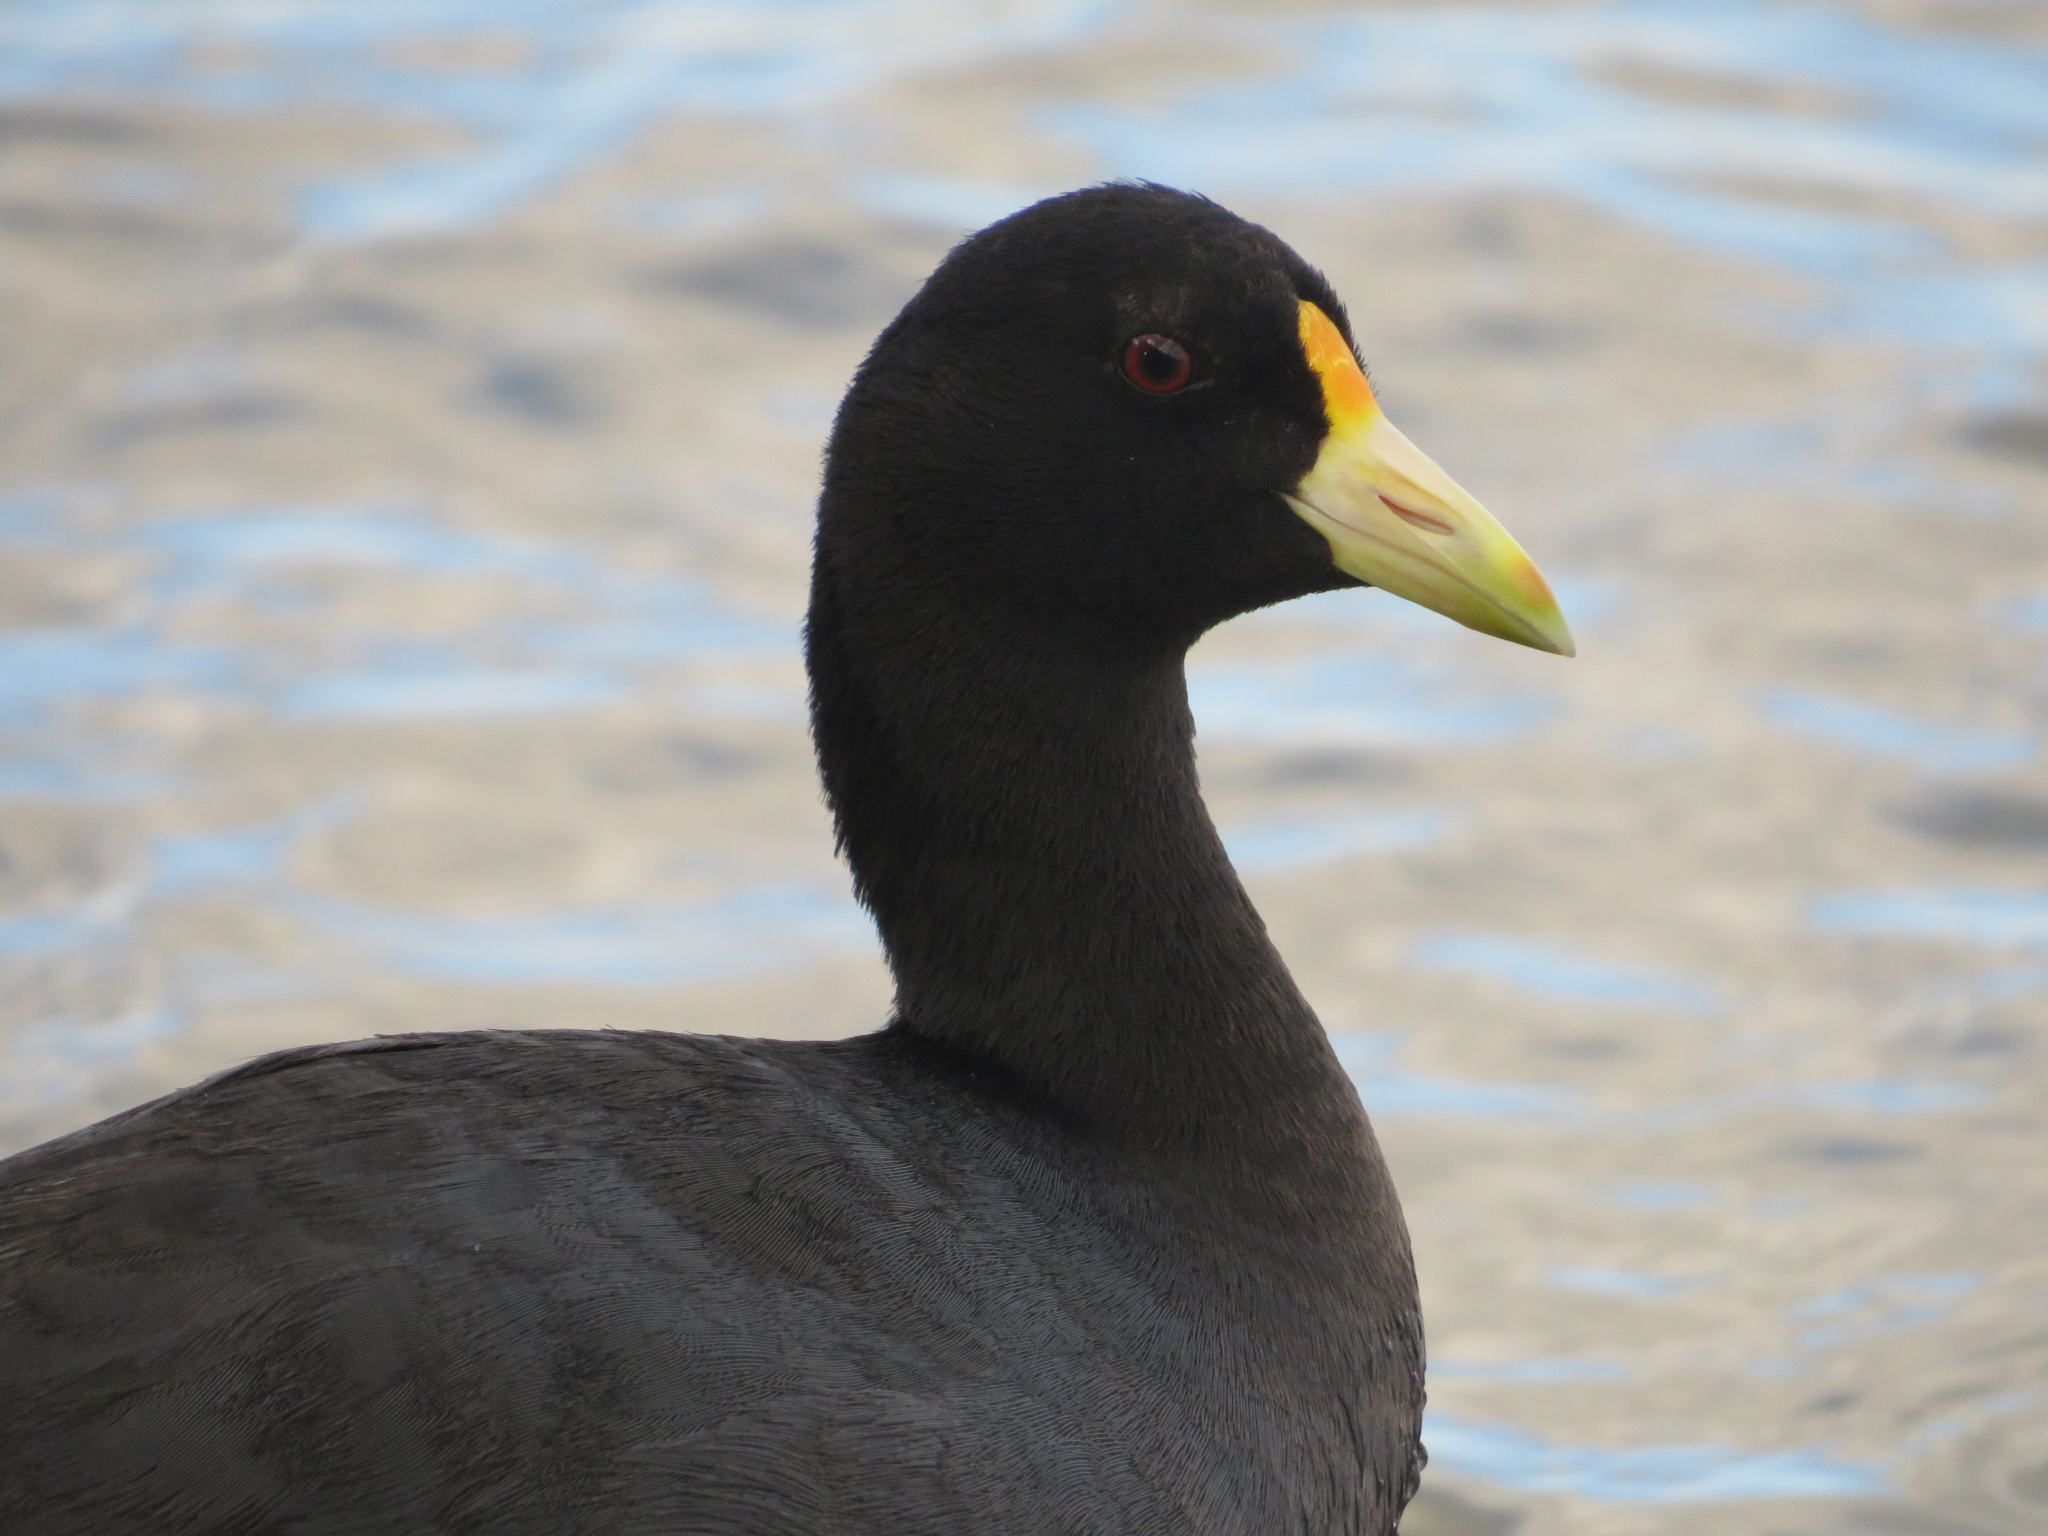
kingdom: Animalia
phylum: Chordata
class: Aves
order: Gruiformes
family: Rallidae
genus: Fulica
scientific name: Fulica leucoptera
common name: White-winged coot
